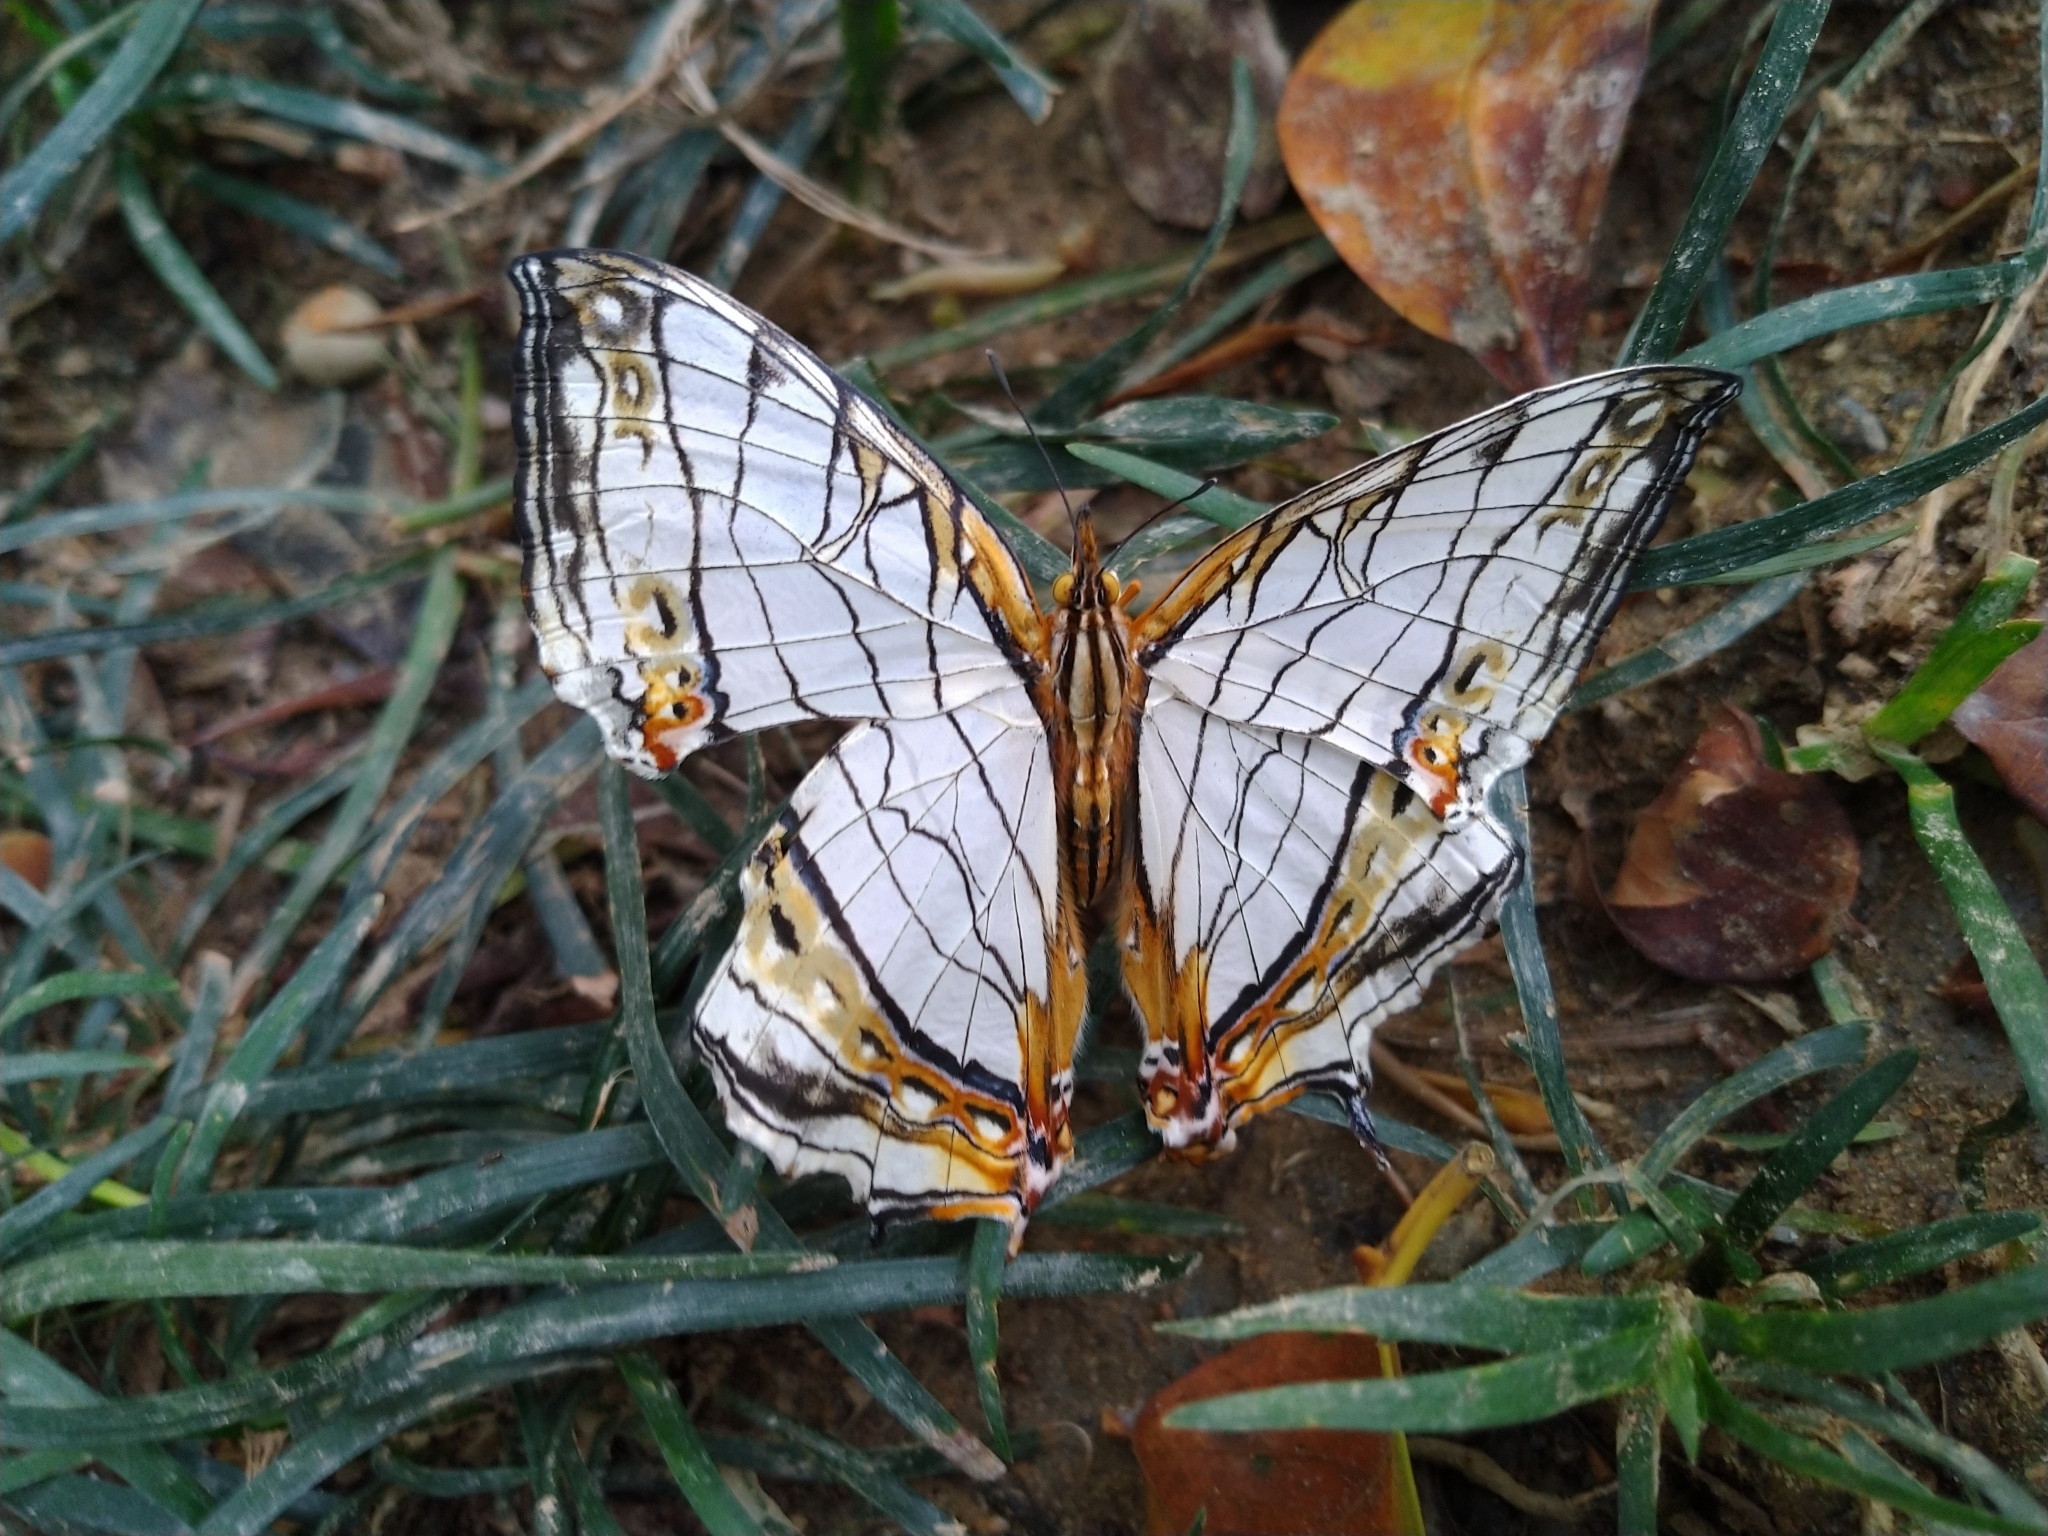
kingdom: Animalia
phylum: Arthropoda
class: Insecta
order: Lepidoptera
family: Nymphalidae
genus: Cyrestis
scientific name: Cyrestis thyodamas
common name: Common mapwing
